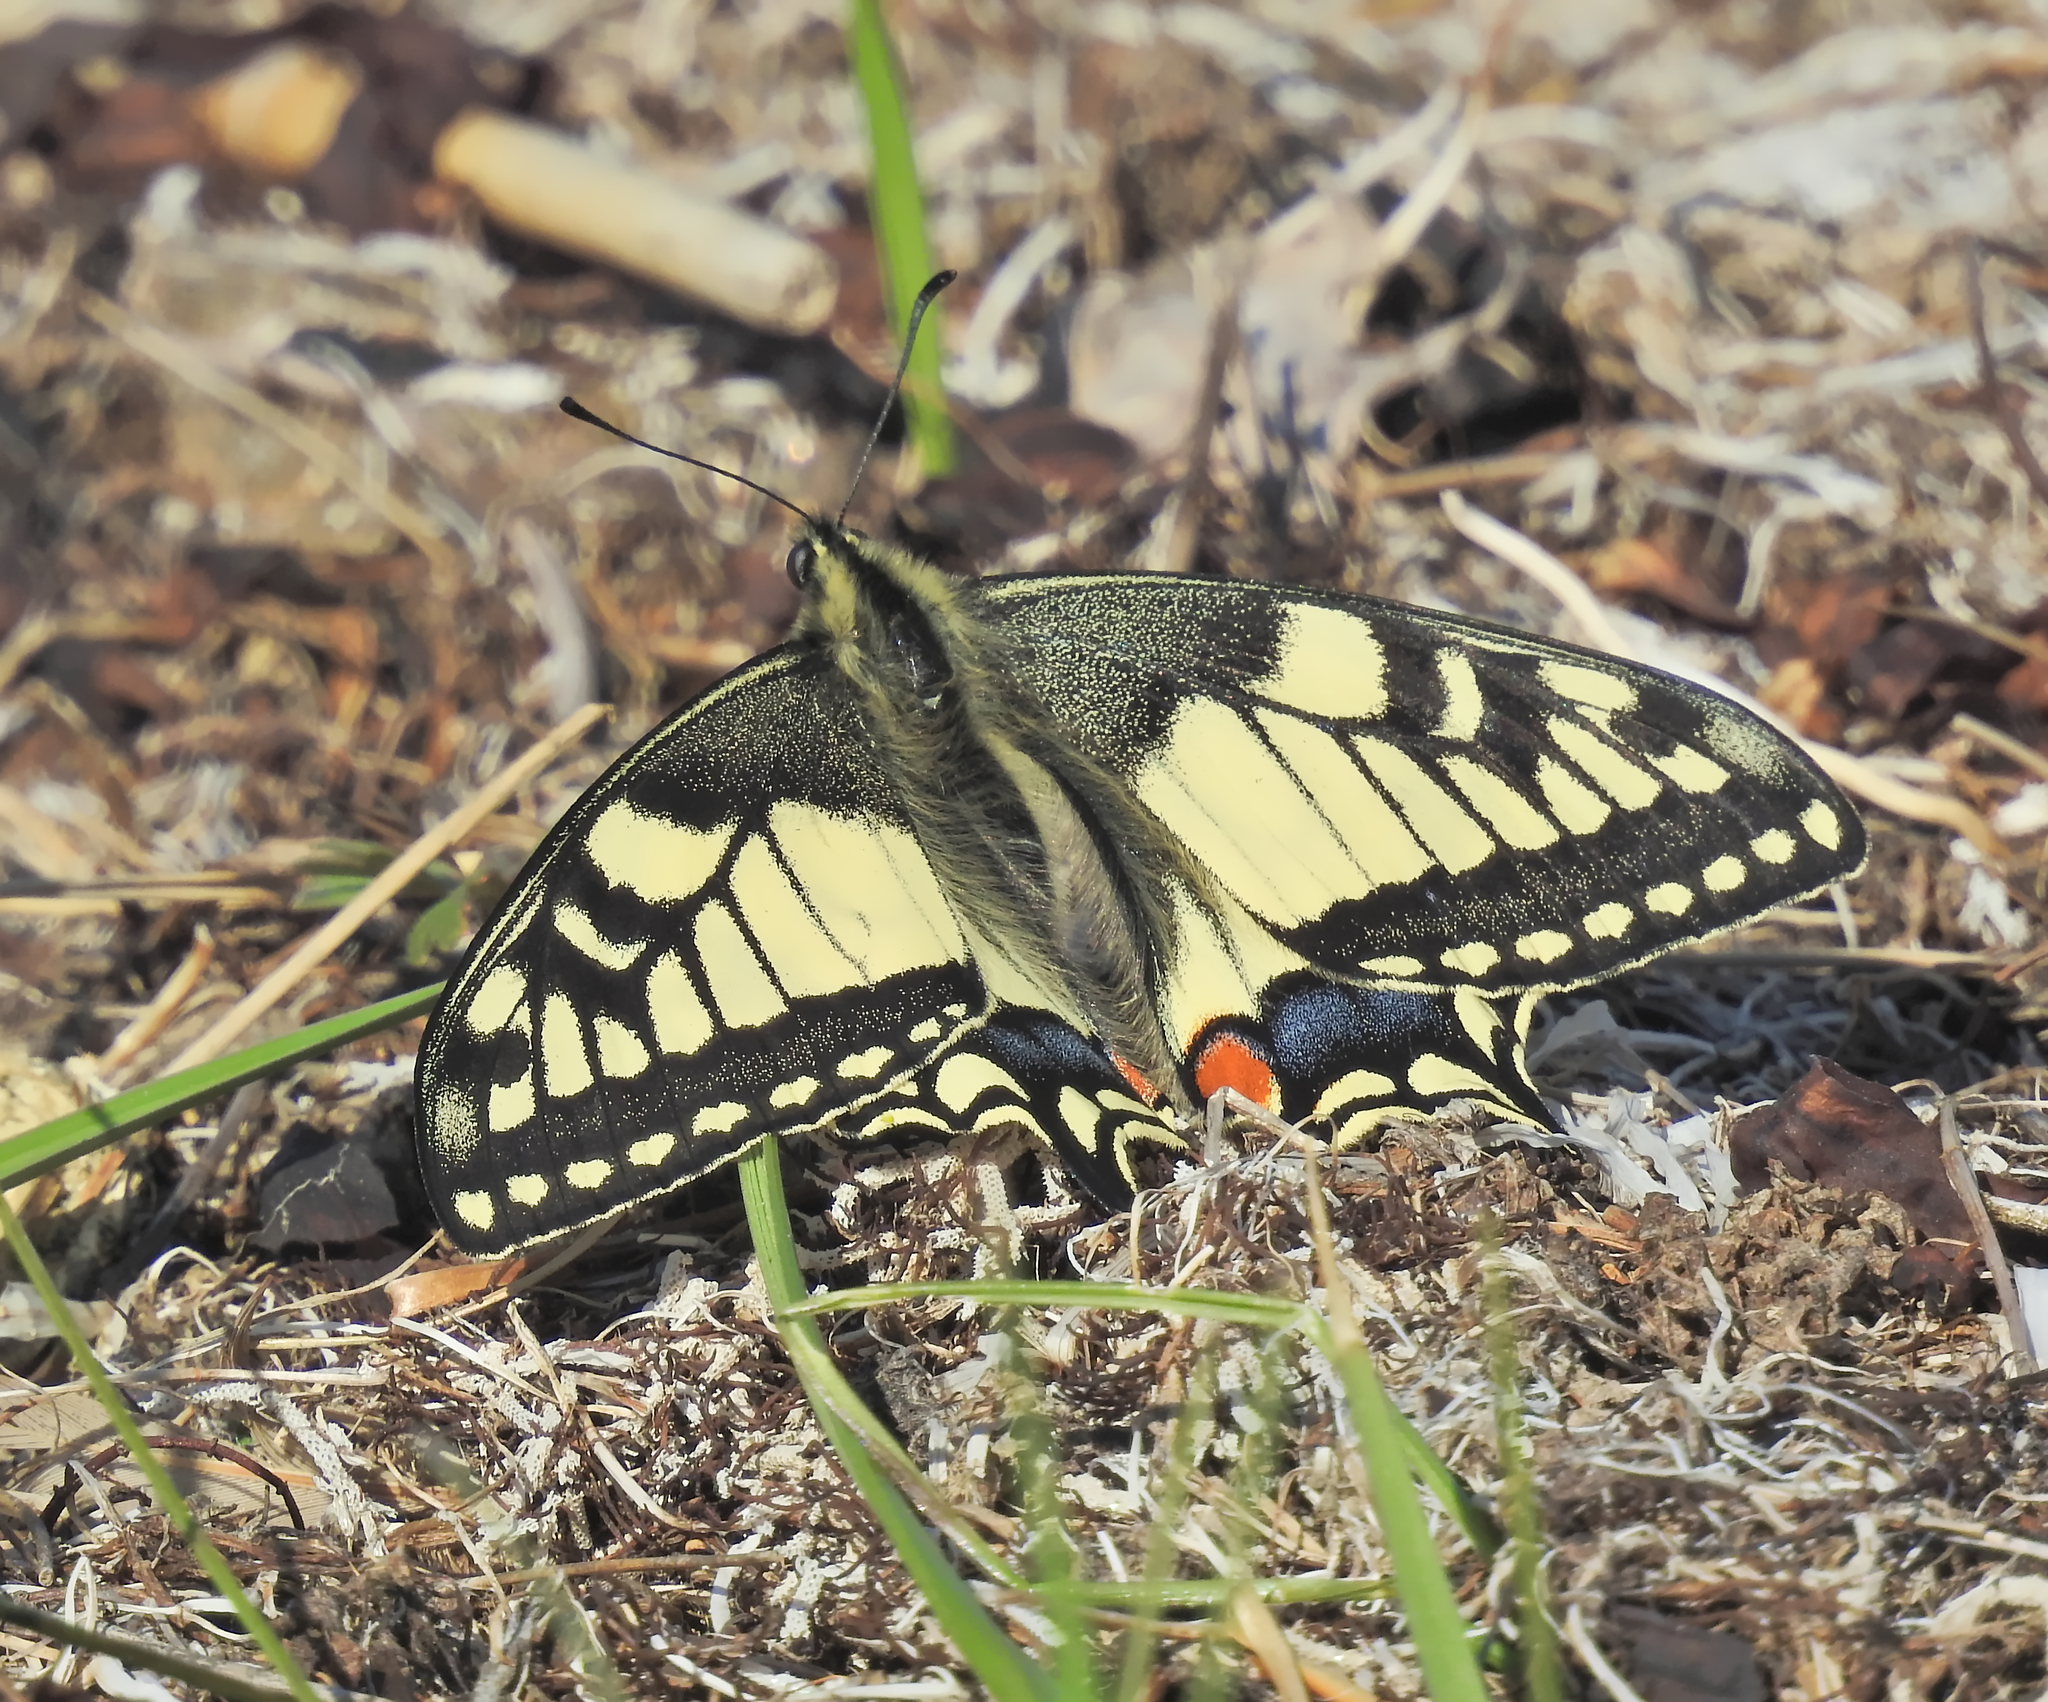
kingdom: Animalia
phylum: Arthropoda
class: Insecta
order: Lepidoptera
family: Papilionidae
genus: Papilio
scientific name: Papilio machaon
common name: Swallowtail
